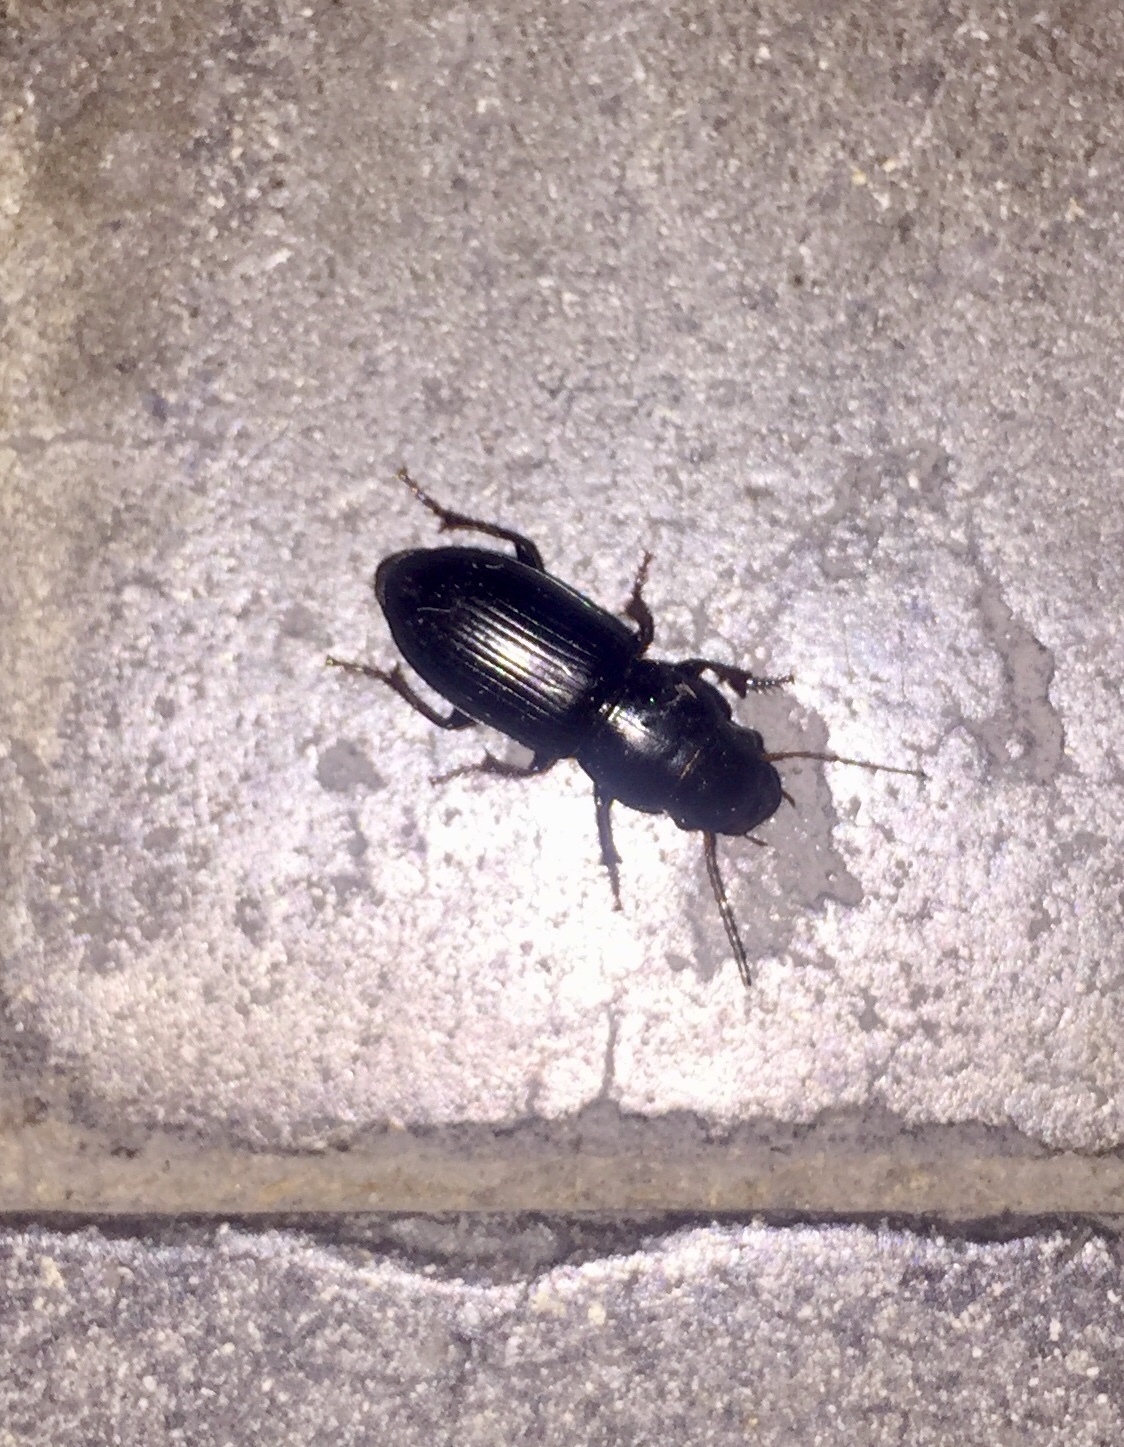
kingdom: Animalia
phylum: Arthropoda
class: Insecta
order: Coleoptera
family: Carabidae
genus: Acinopus
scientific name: Acinopus picipes
